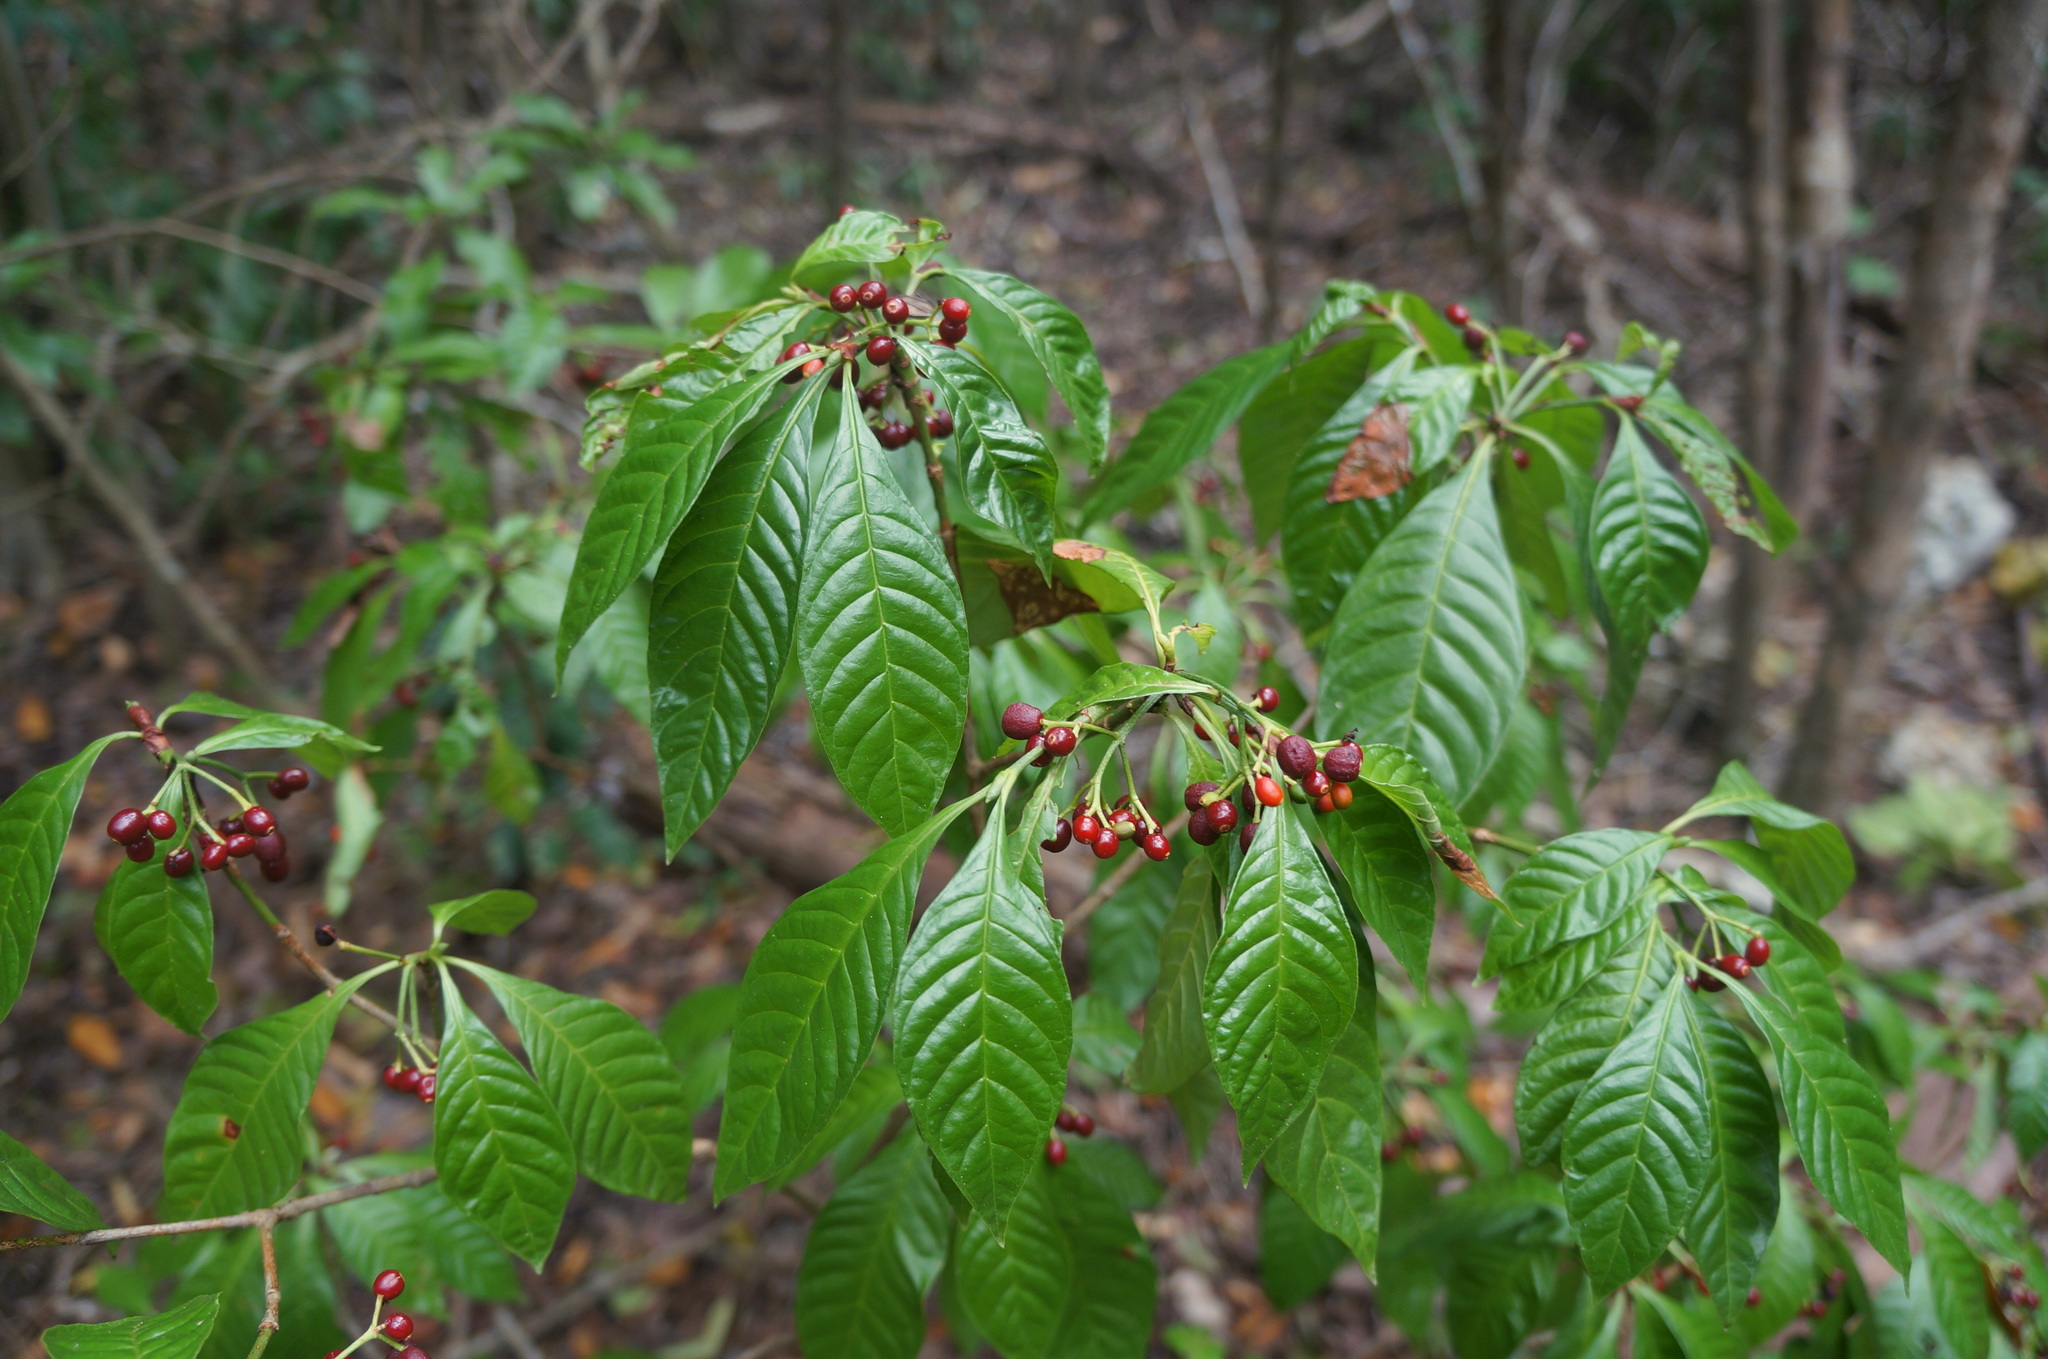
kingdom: Plantae
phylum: Tracheophyta
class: Magnoliopsida
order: Gentianales
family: Rubiaceae
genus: Psychotria
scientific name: Psychotria nervosa
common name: Bastard cankerberry
